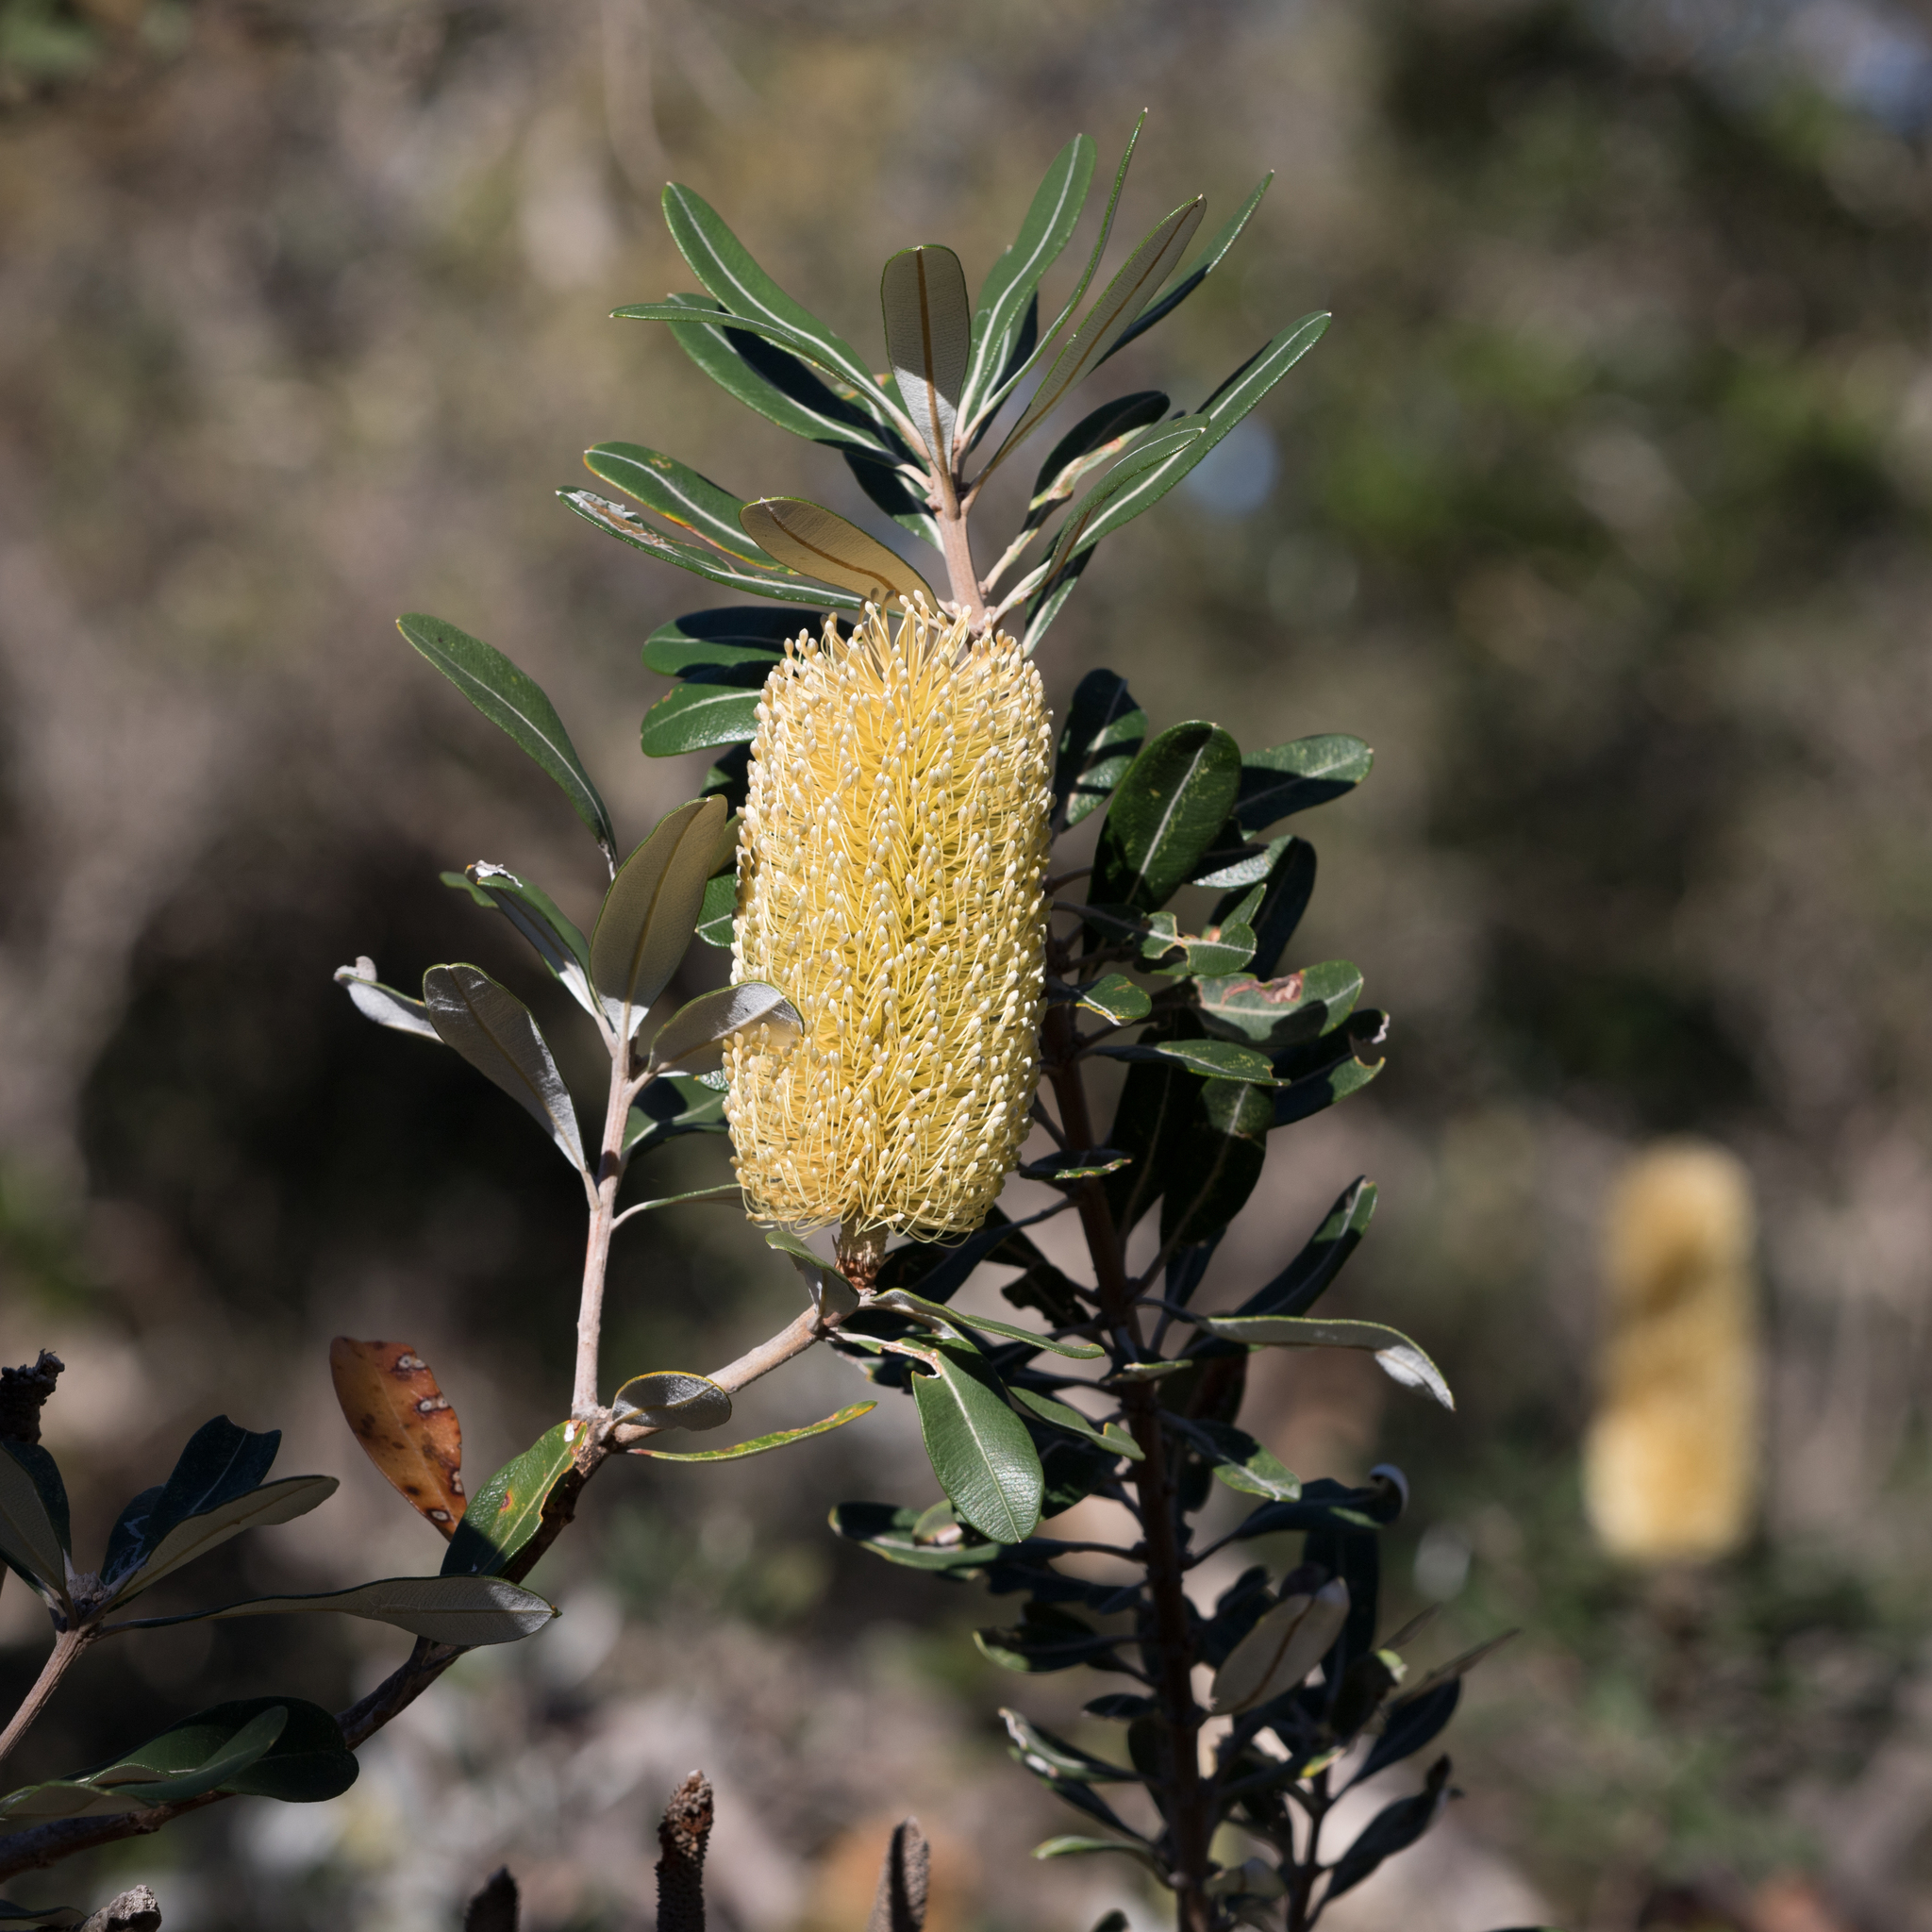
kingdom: Plantae
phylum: Tracheophyta
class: Magnoliopsida
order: Proteales
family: Proteaceae
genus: Banksia
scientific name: Banksia integrifolia
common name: White-honeysuckle
